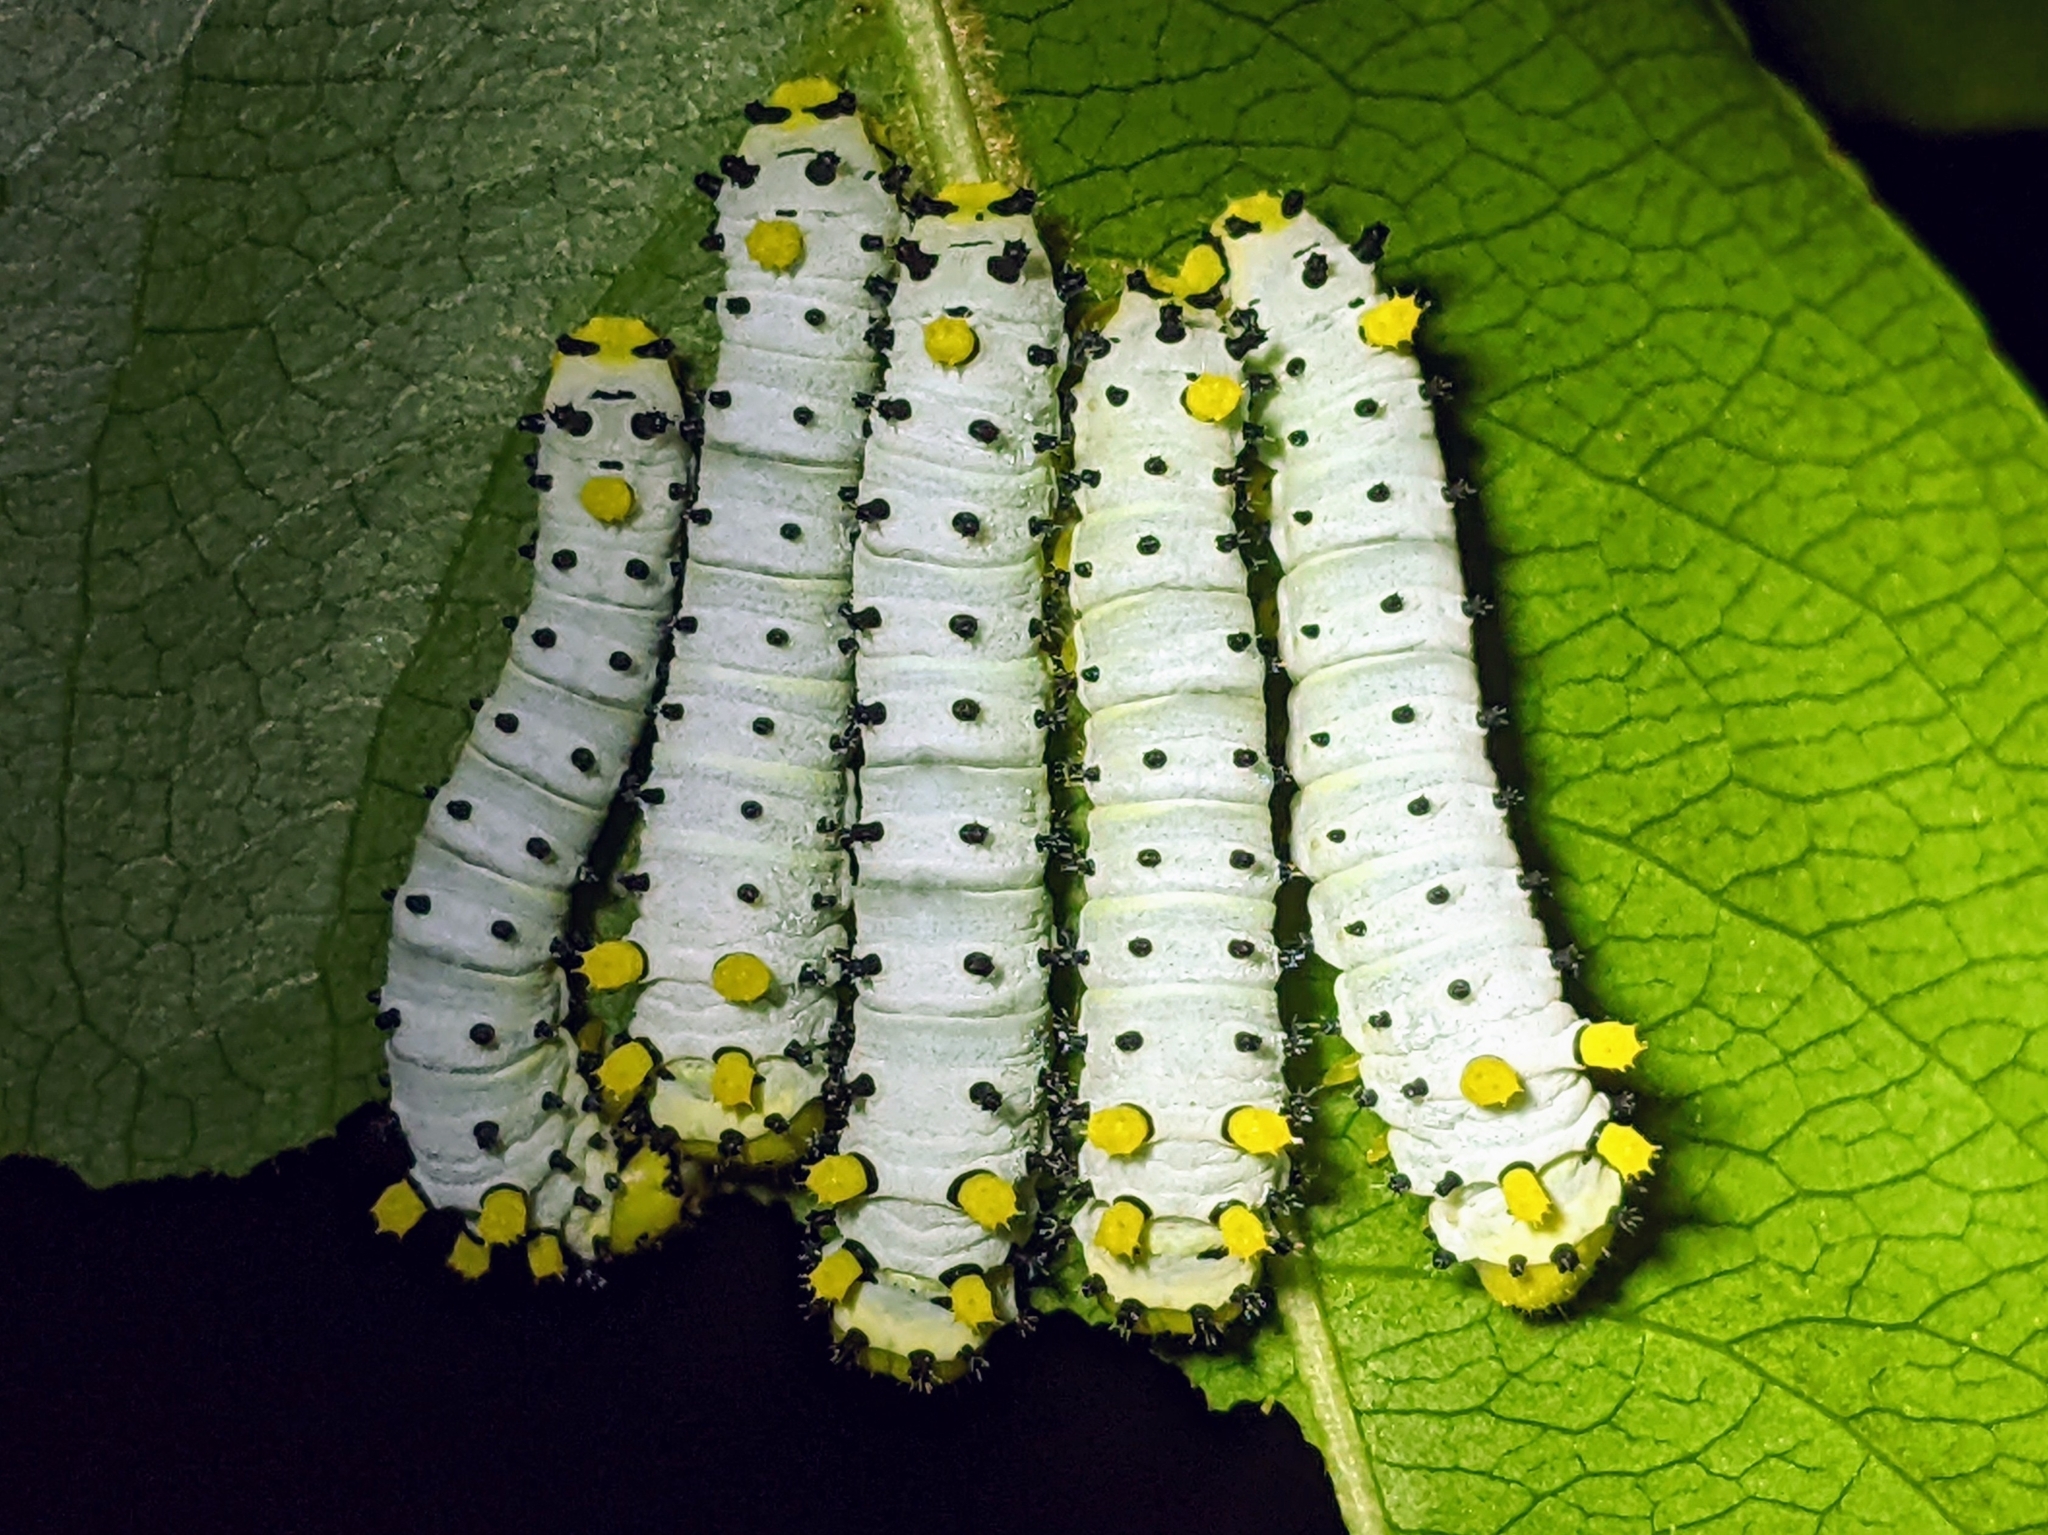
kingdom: Animalia
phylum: Arthropoda
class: Insecta
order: Lepidoptera
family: Saturniidae
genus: Callosamia
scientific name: Callosamia promethea
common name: Promethea silkmoth
